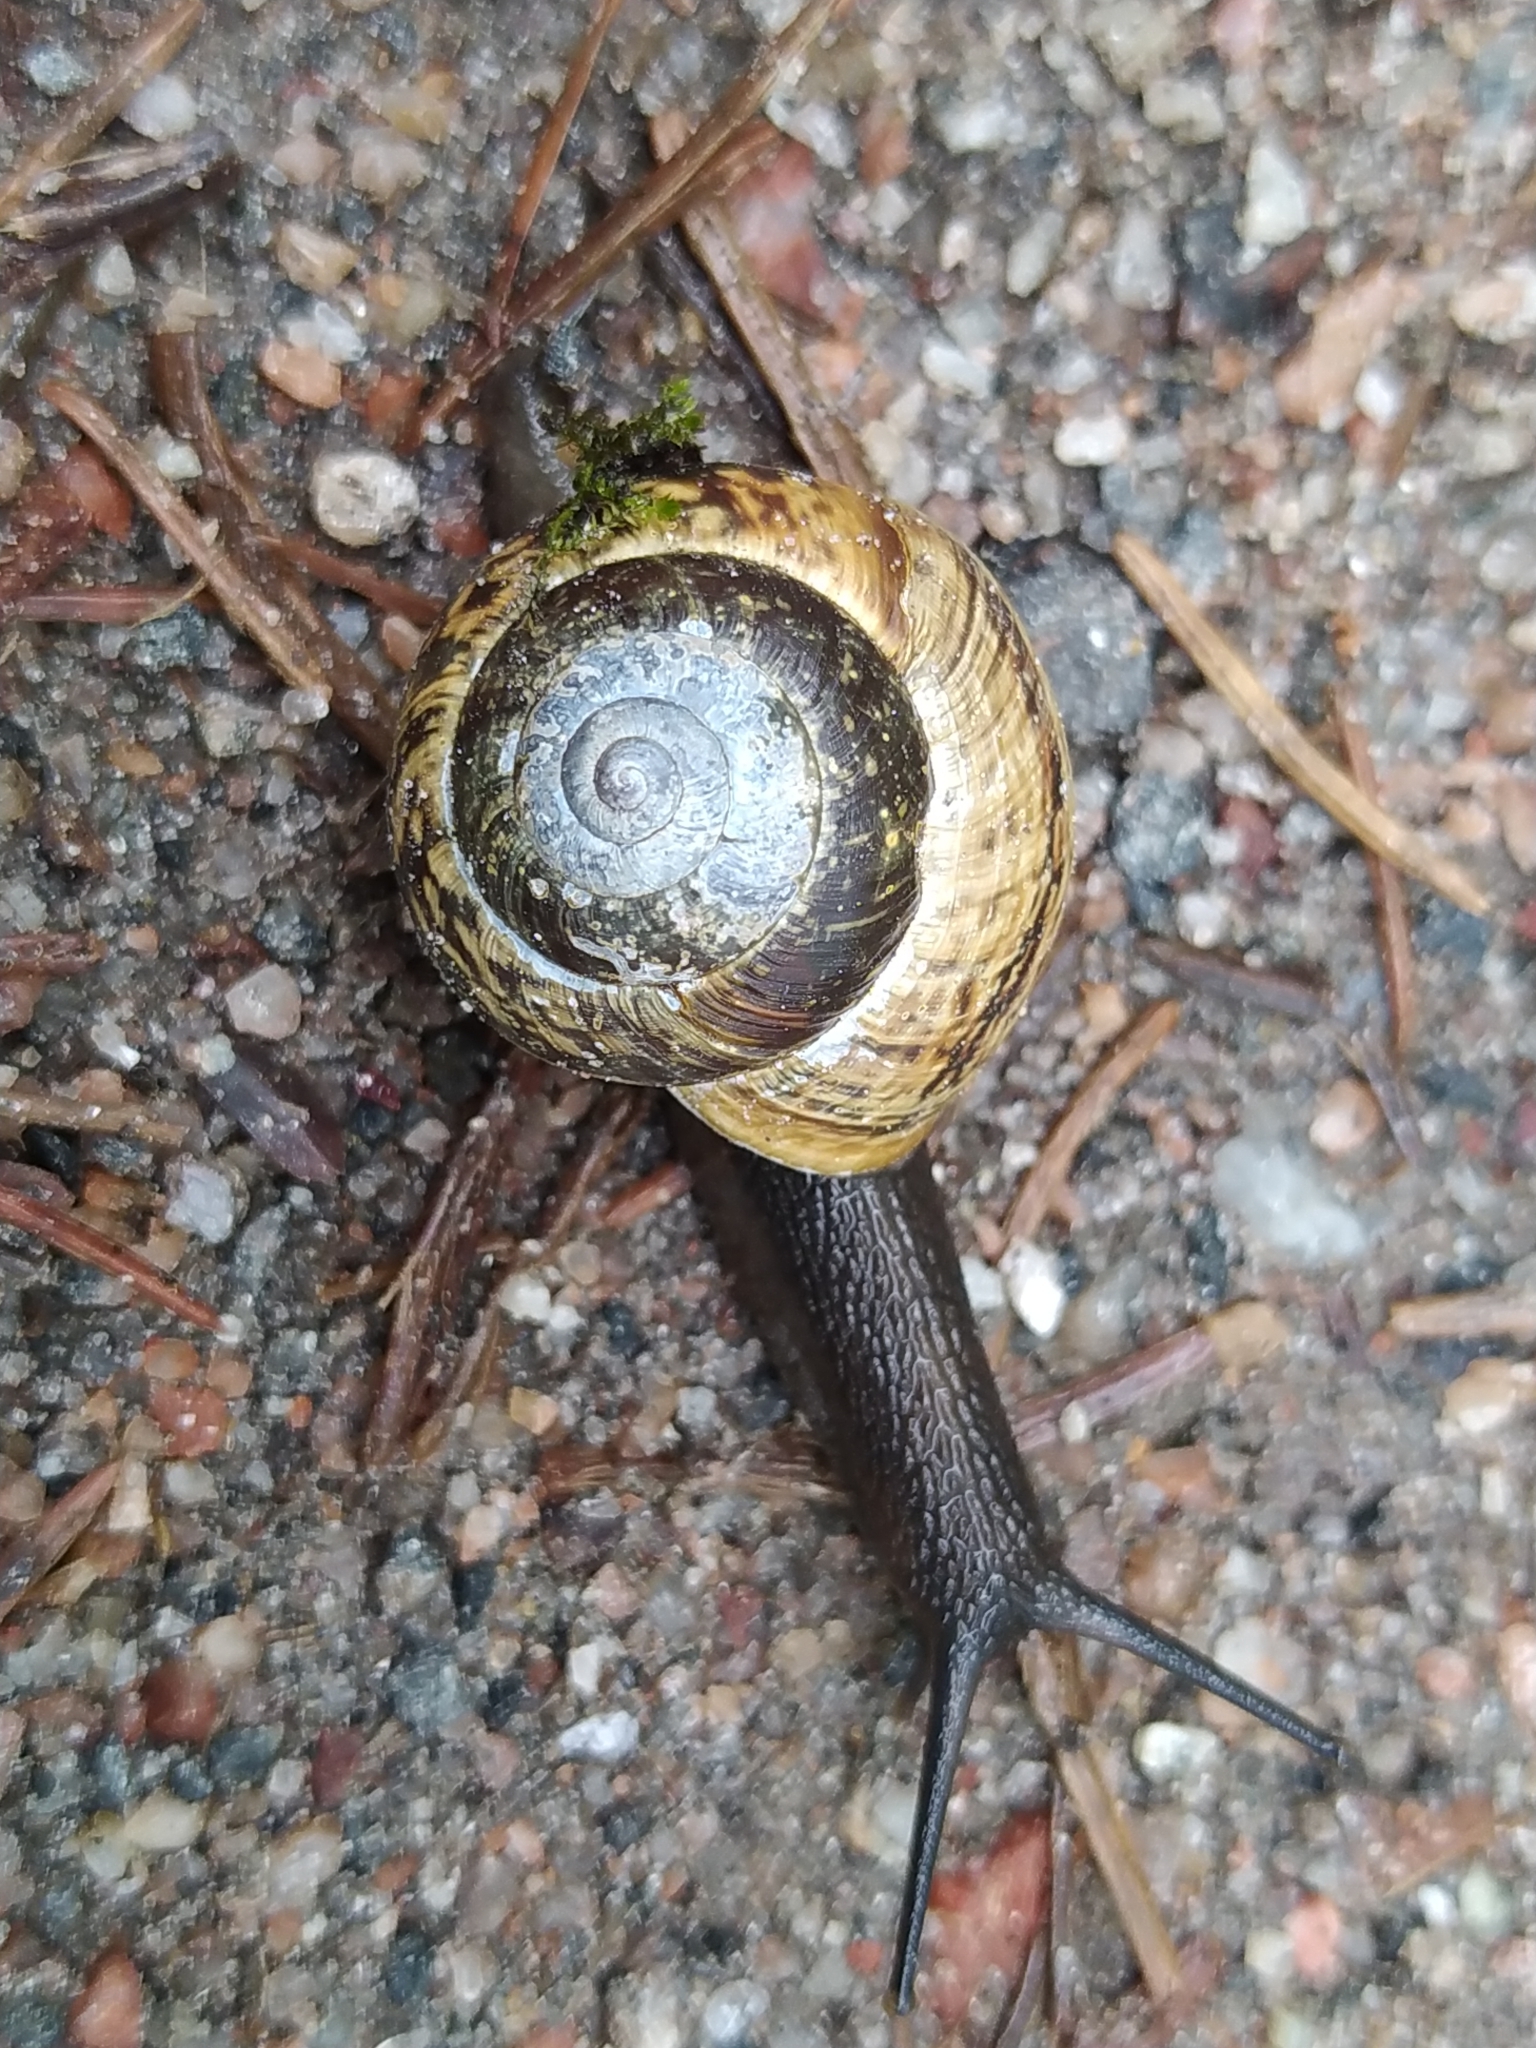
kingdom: Animalia
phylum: Mollusca
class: Gastropoda
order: Stylommatophora
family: Helicidae
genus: Arianta
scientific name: Arianta arbustorum
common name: Copse snail
